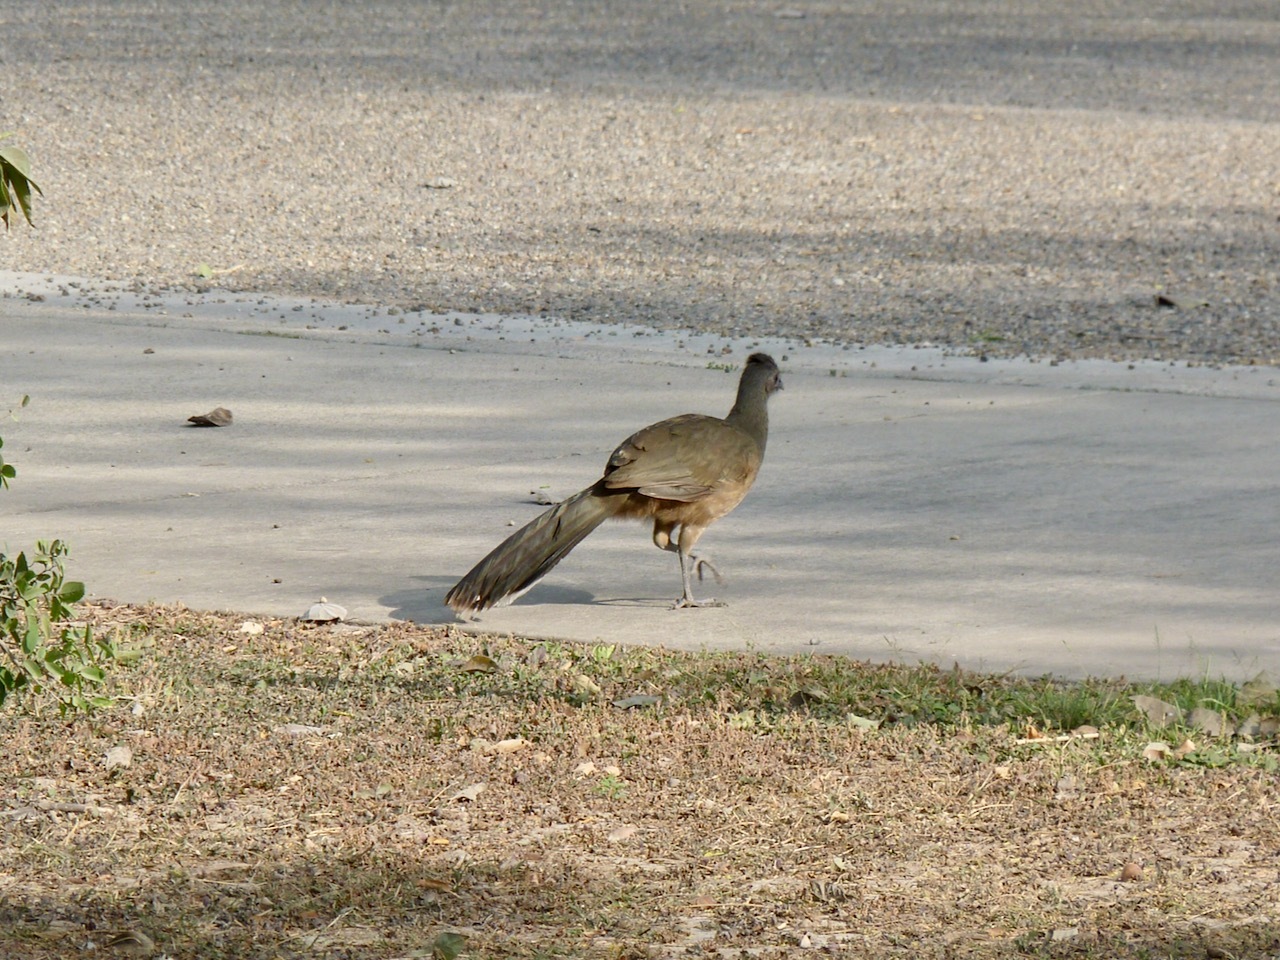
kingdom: Animalia
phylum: Chordata
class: Aves
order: Galliformes
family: Cracidae
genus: Ortalis
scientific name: Ortalis vetula
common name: Plain chachalaca
